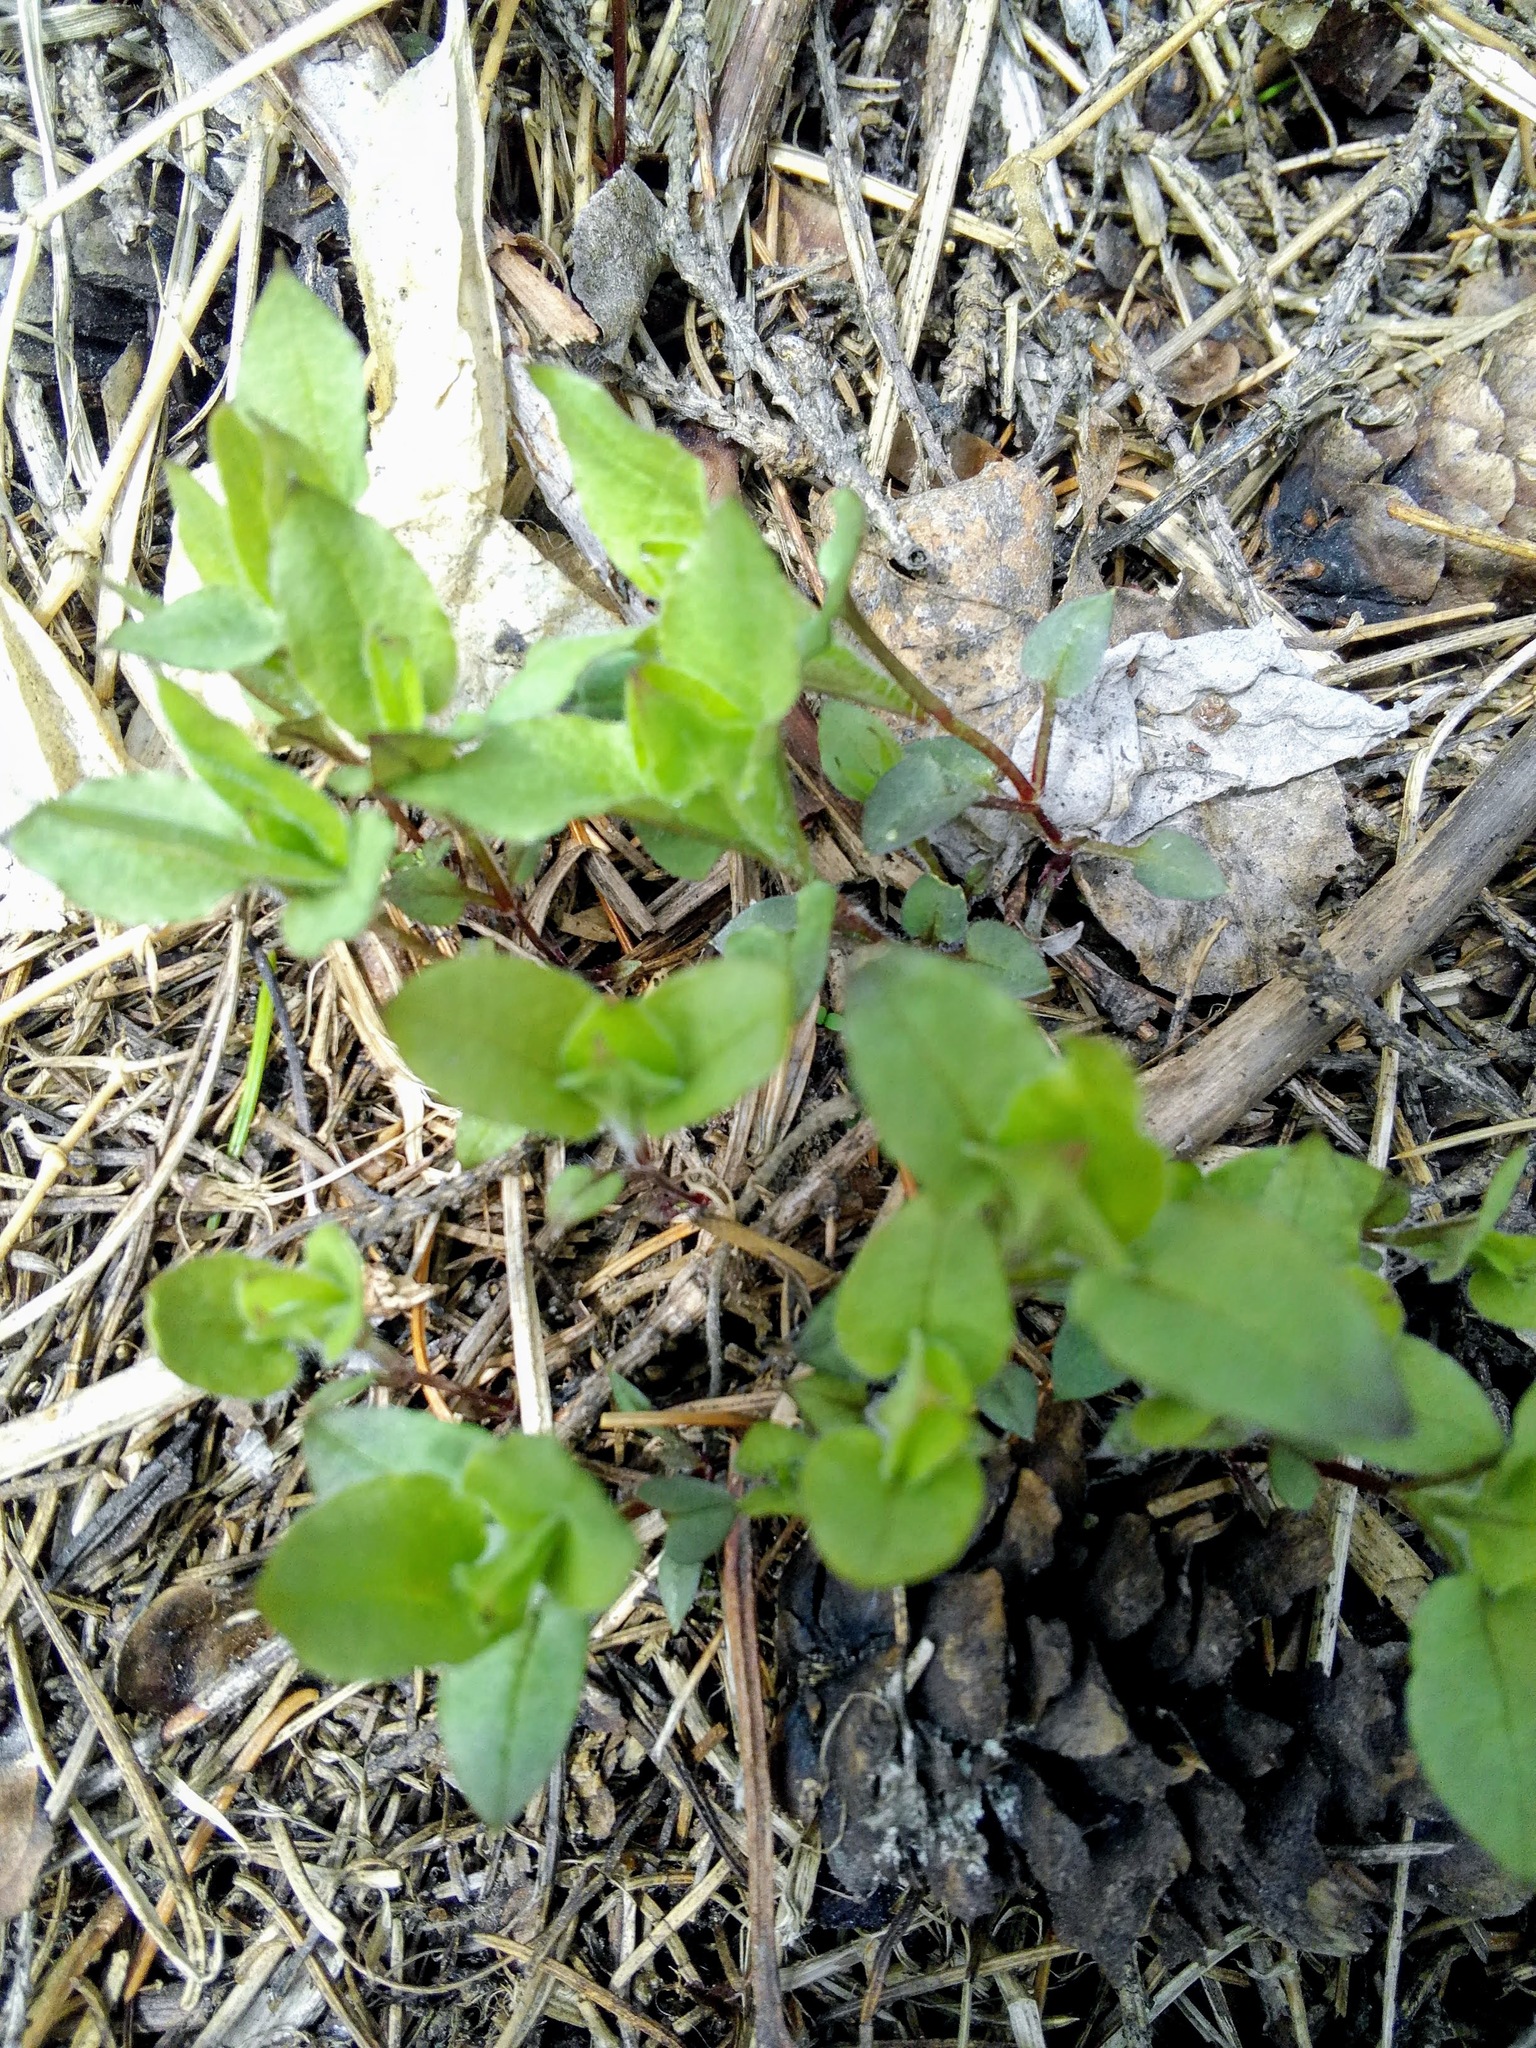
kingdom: Plantae
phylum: Tracheophyta
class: Magnoliopsida
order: Caryophyllales
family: Caryophyllaceae
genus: Stellaria
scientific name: Stellaria bungeana
